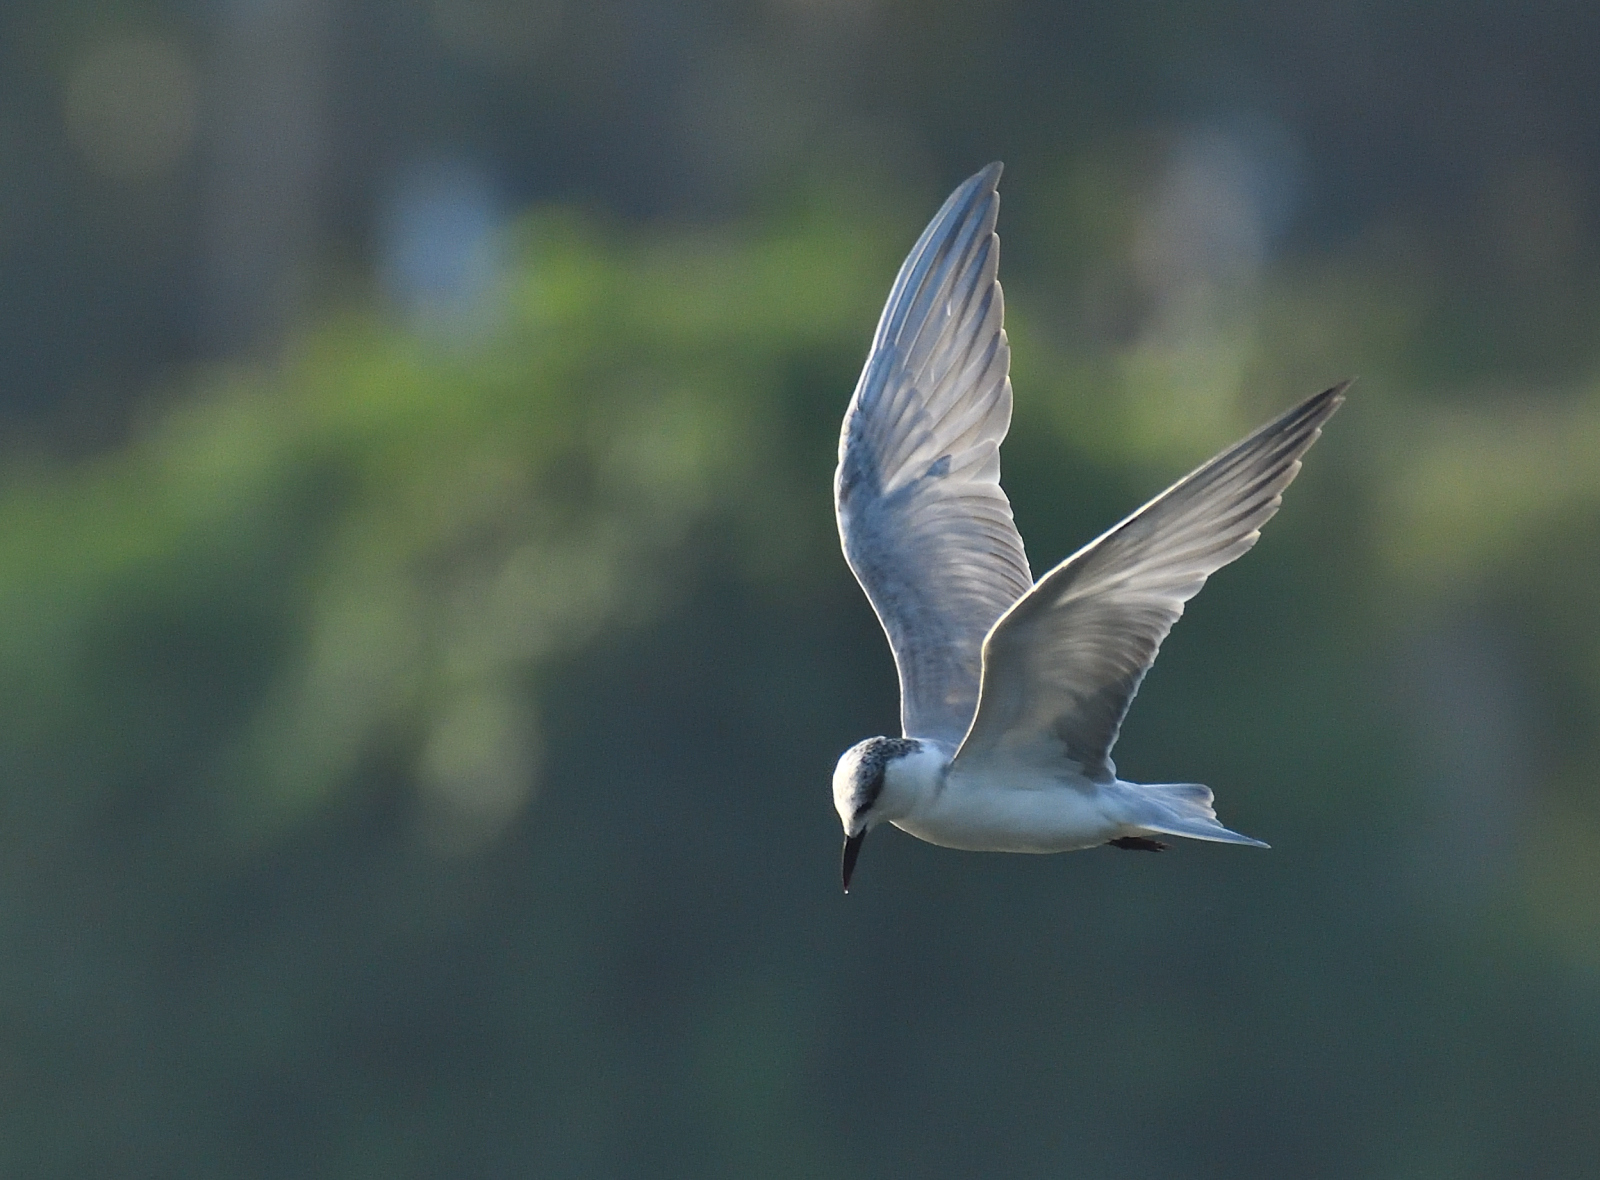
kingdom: Animalia
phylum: Chordata
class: Aves
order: Charadriiformes
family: Laridae
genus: Chlidonias
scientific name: Chlidonias hybrida
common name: Whiskered tern
